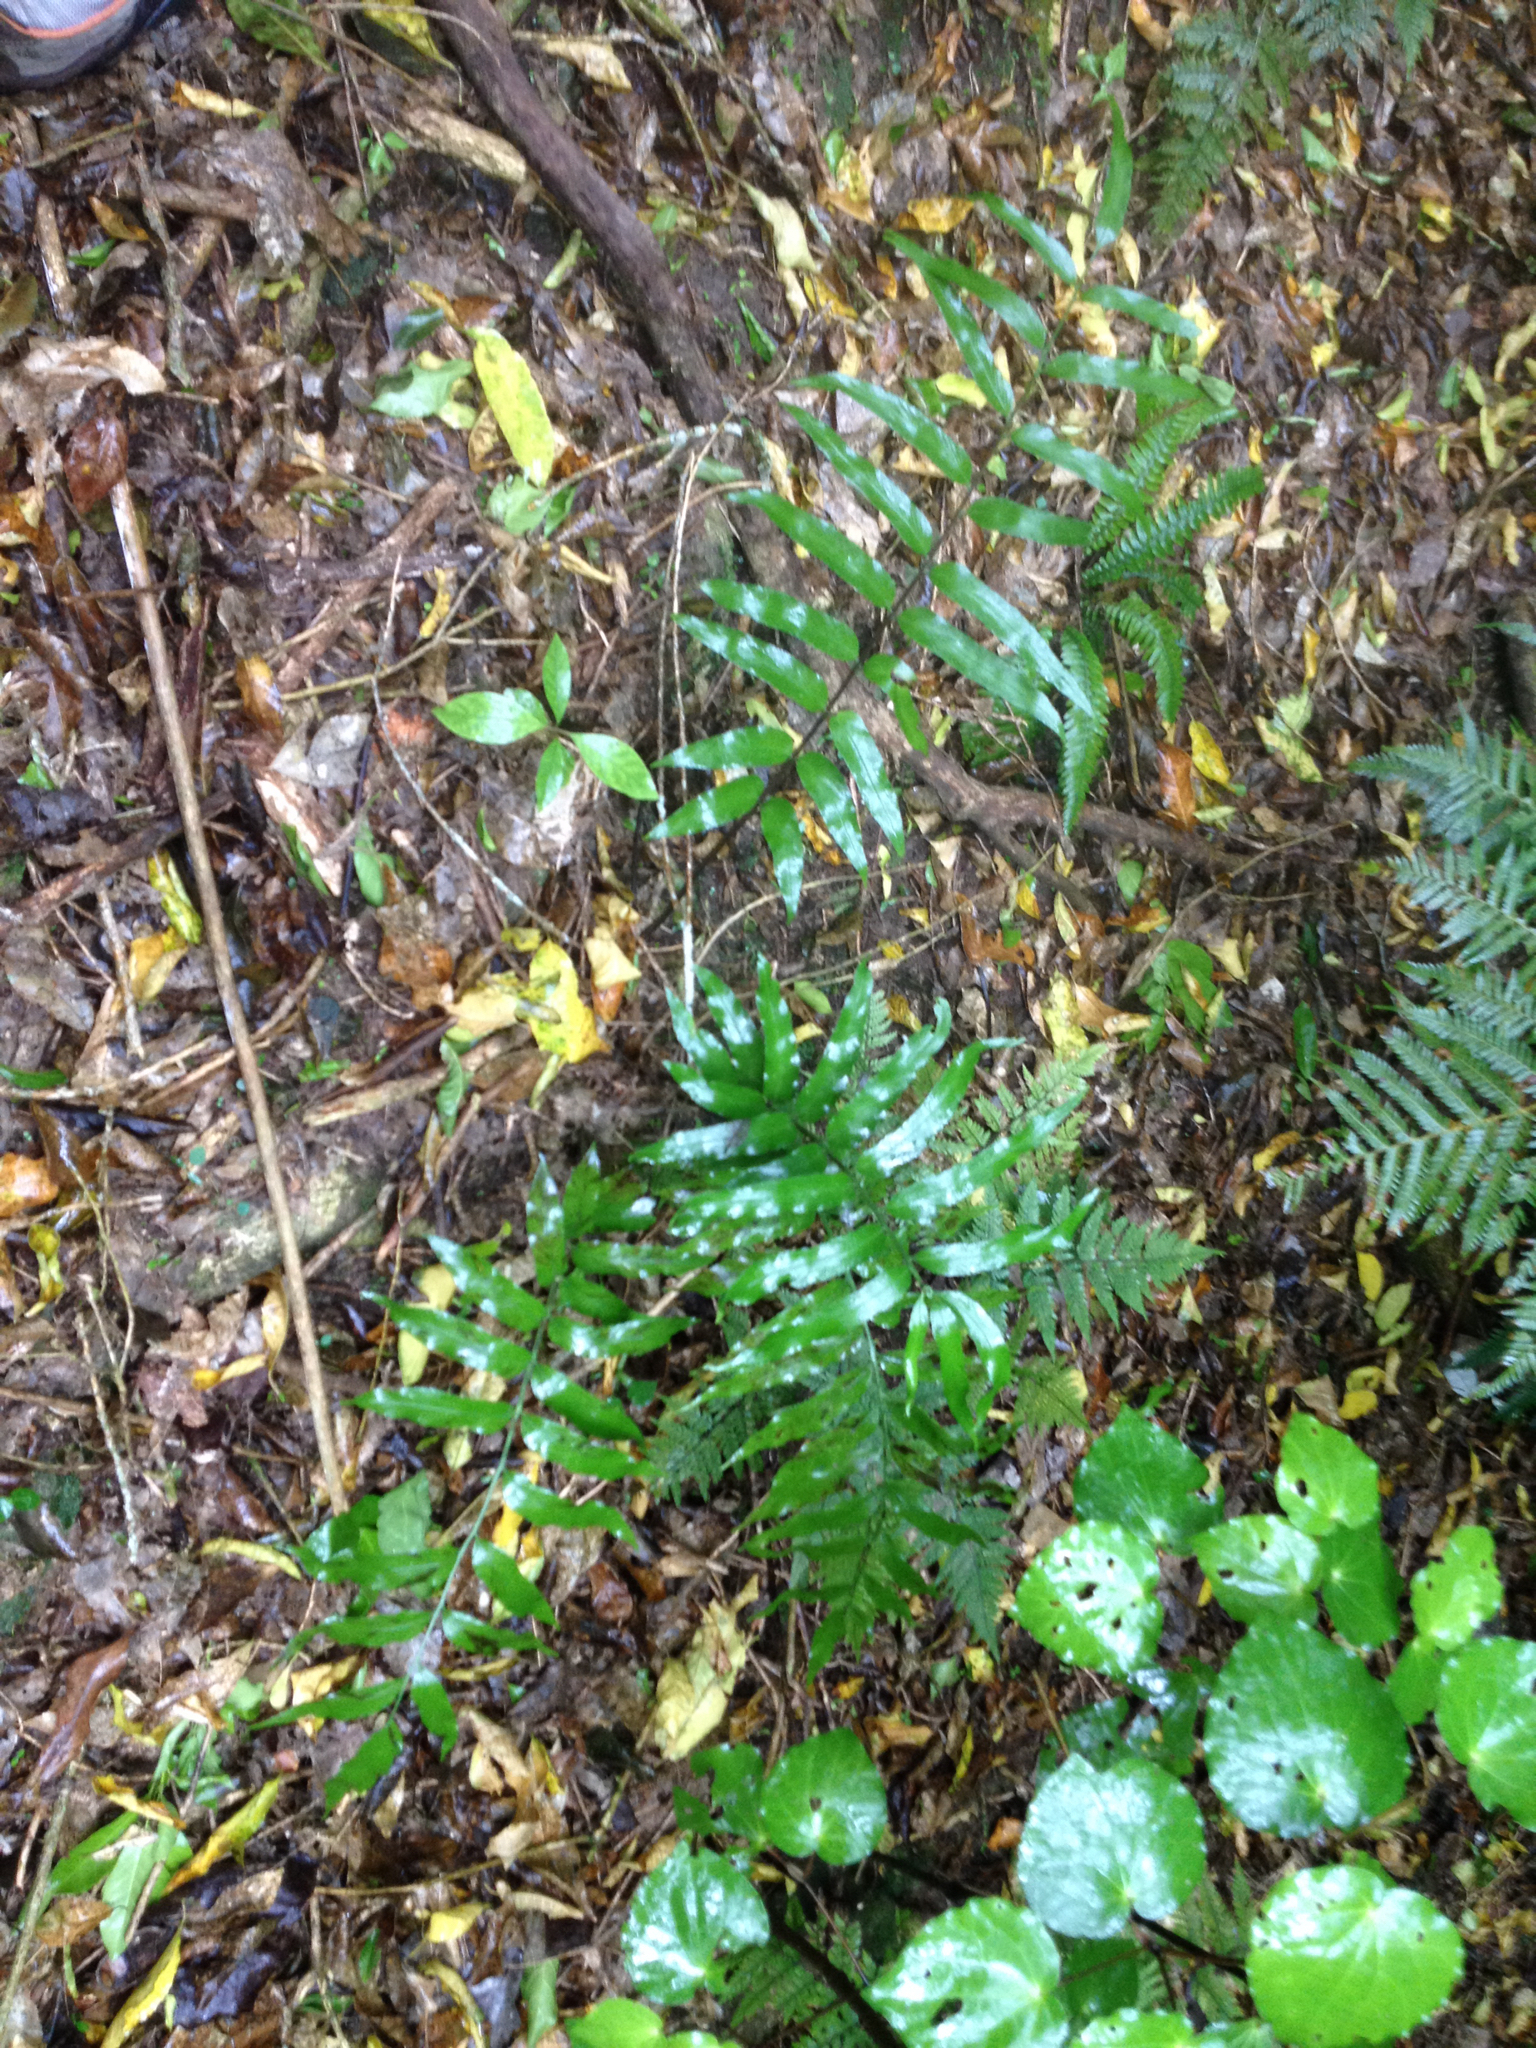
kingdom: Plantae
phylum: Tracheophyta
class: Polypodiopsida
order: Polypodiales
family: Aspleniaceae
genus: Asplenium
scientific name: Asplenium oblongifolium
